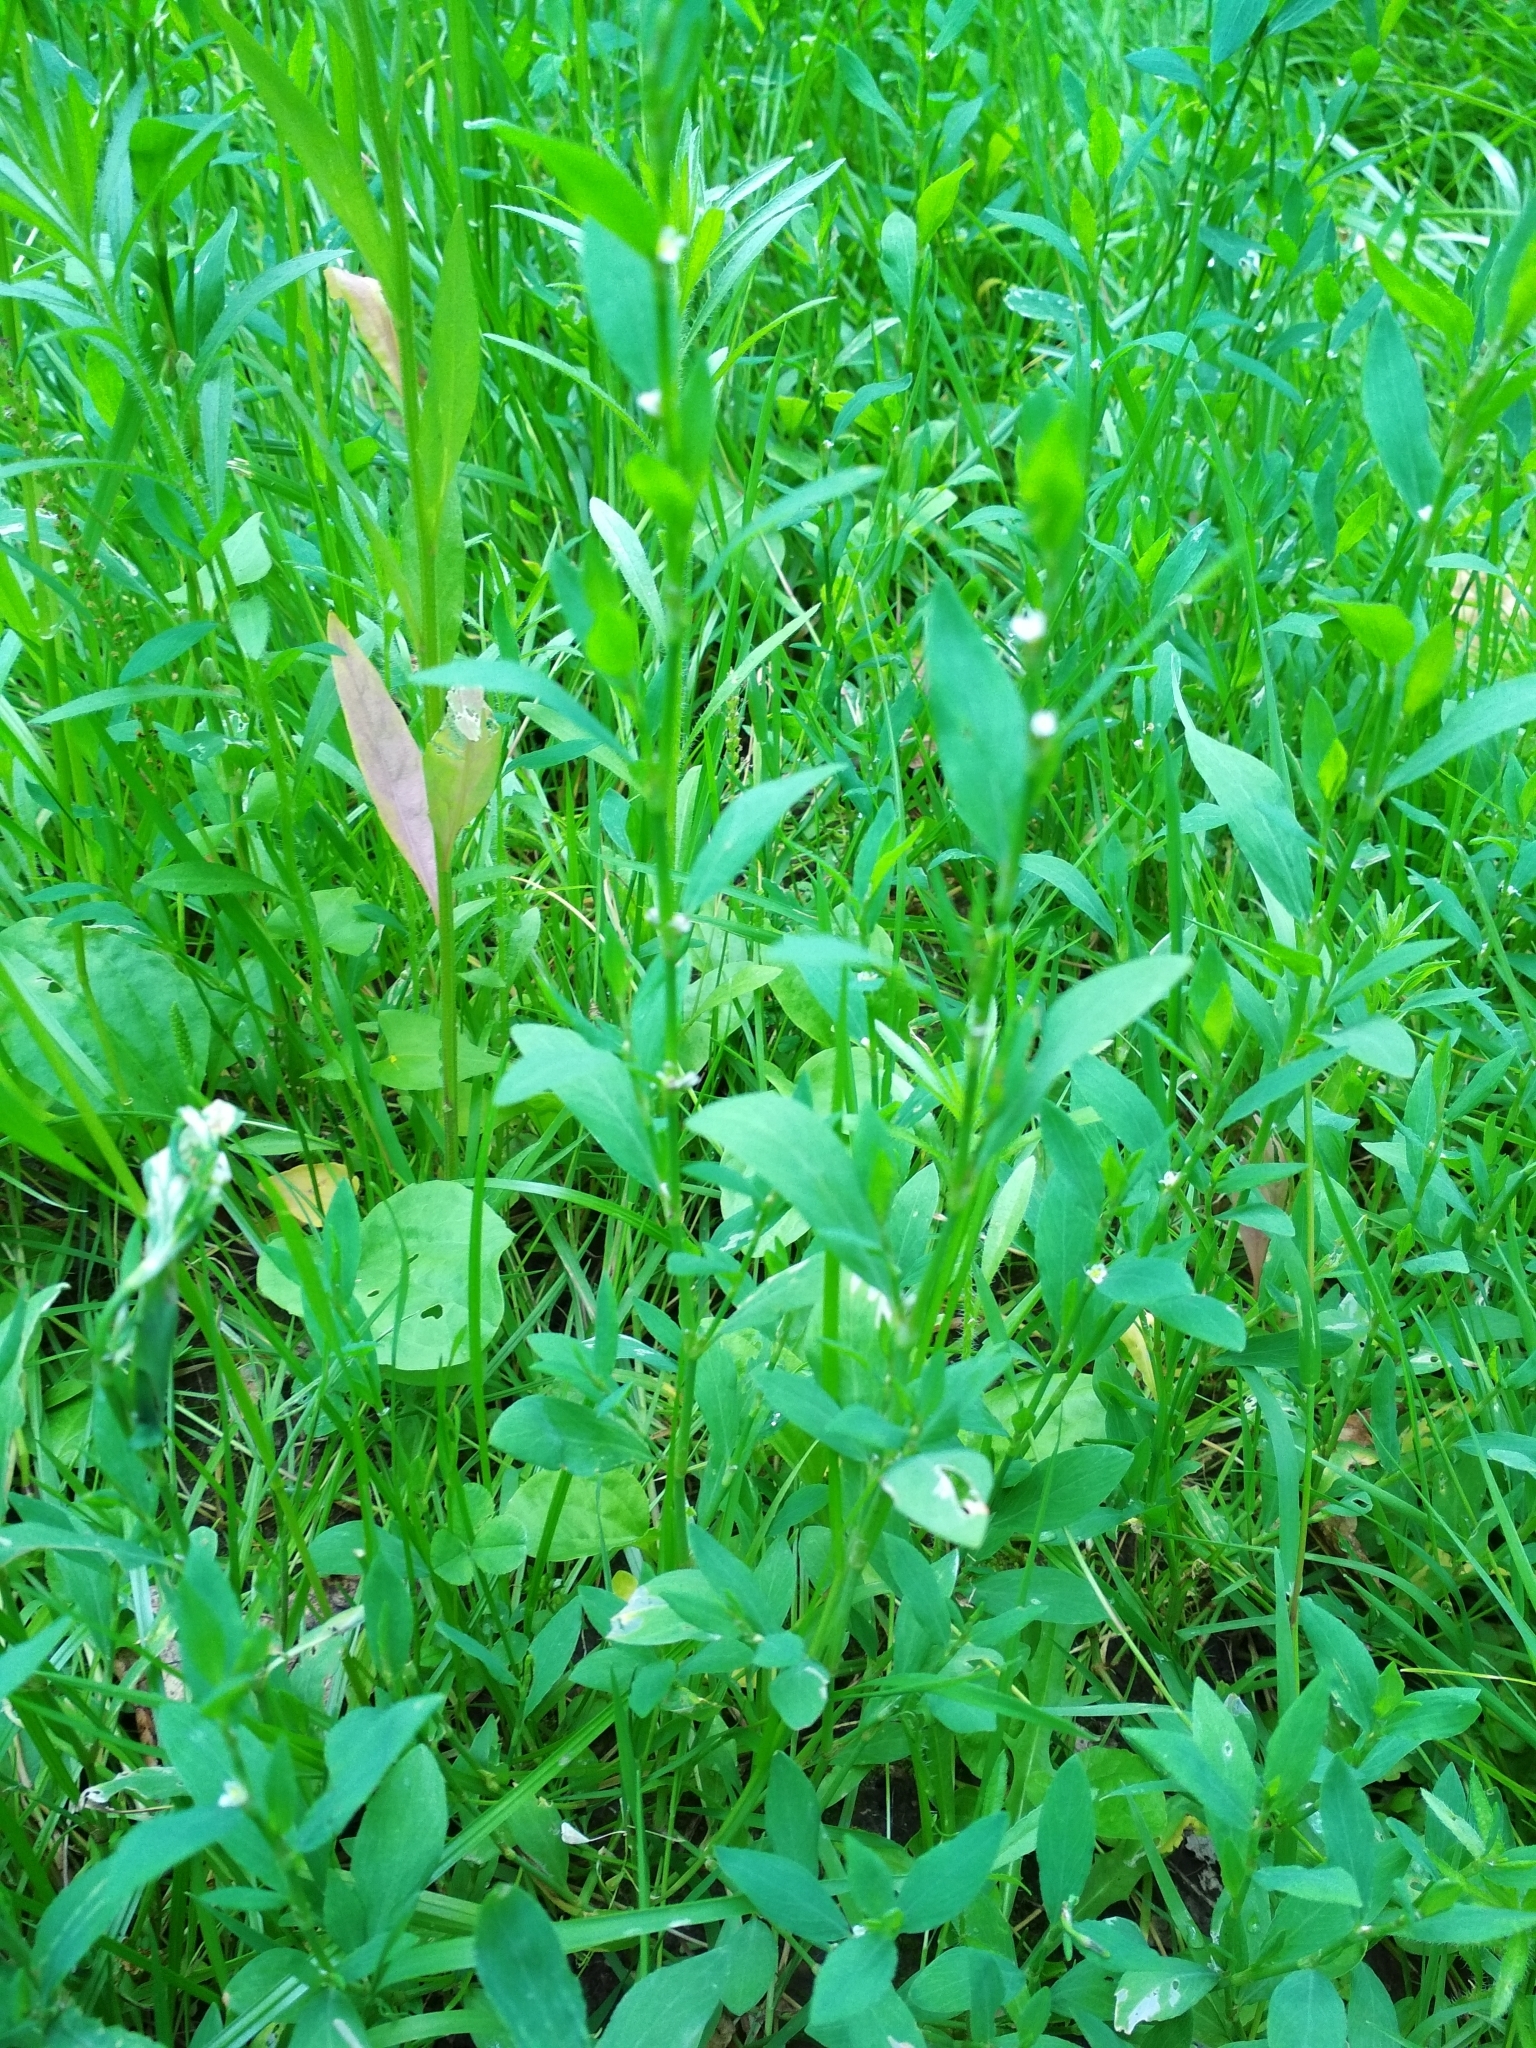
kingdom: Plantae
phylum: Tracheophyta
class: Magnoliopsida
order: Caryophyllales
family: Polygonaceae
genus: Polygonum
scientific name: Polygonum
